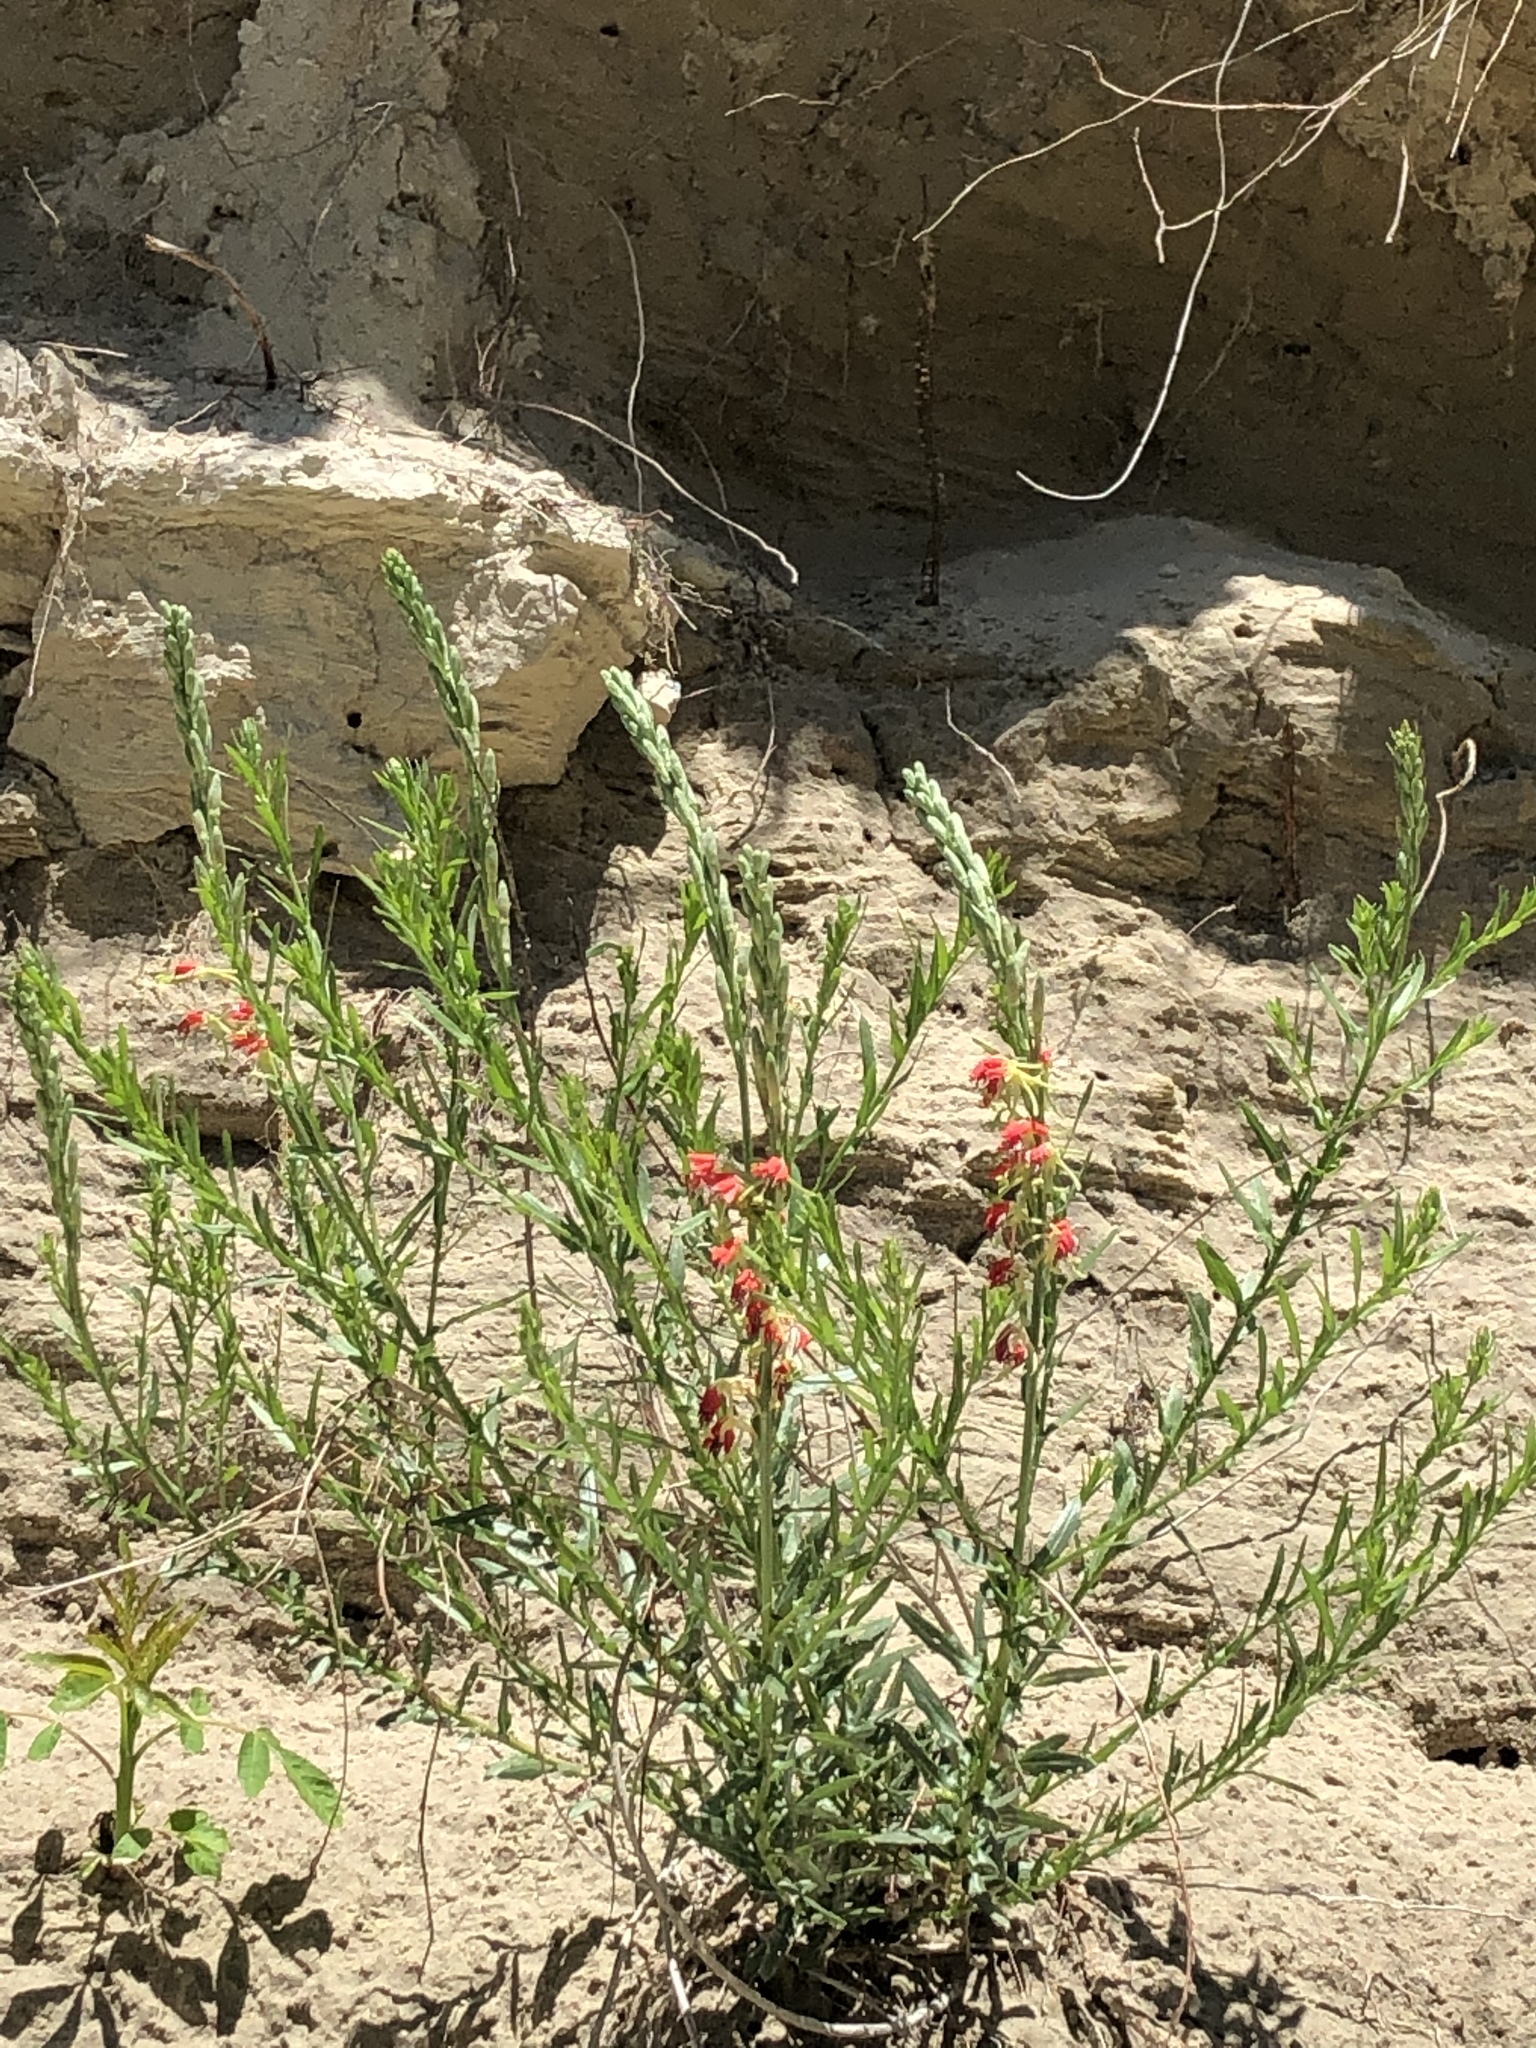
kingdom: Plantae
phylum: Tracheophyta
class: Magnoliopsida
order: Myrtales
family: Onagraceae
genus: Oenothera
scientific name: Oenothera suffrutescens
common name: Scarlet beeblossom
